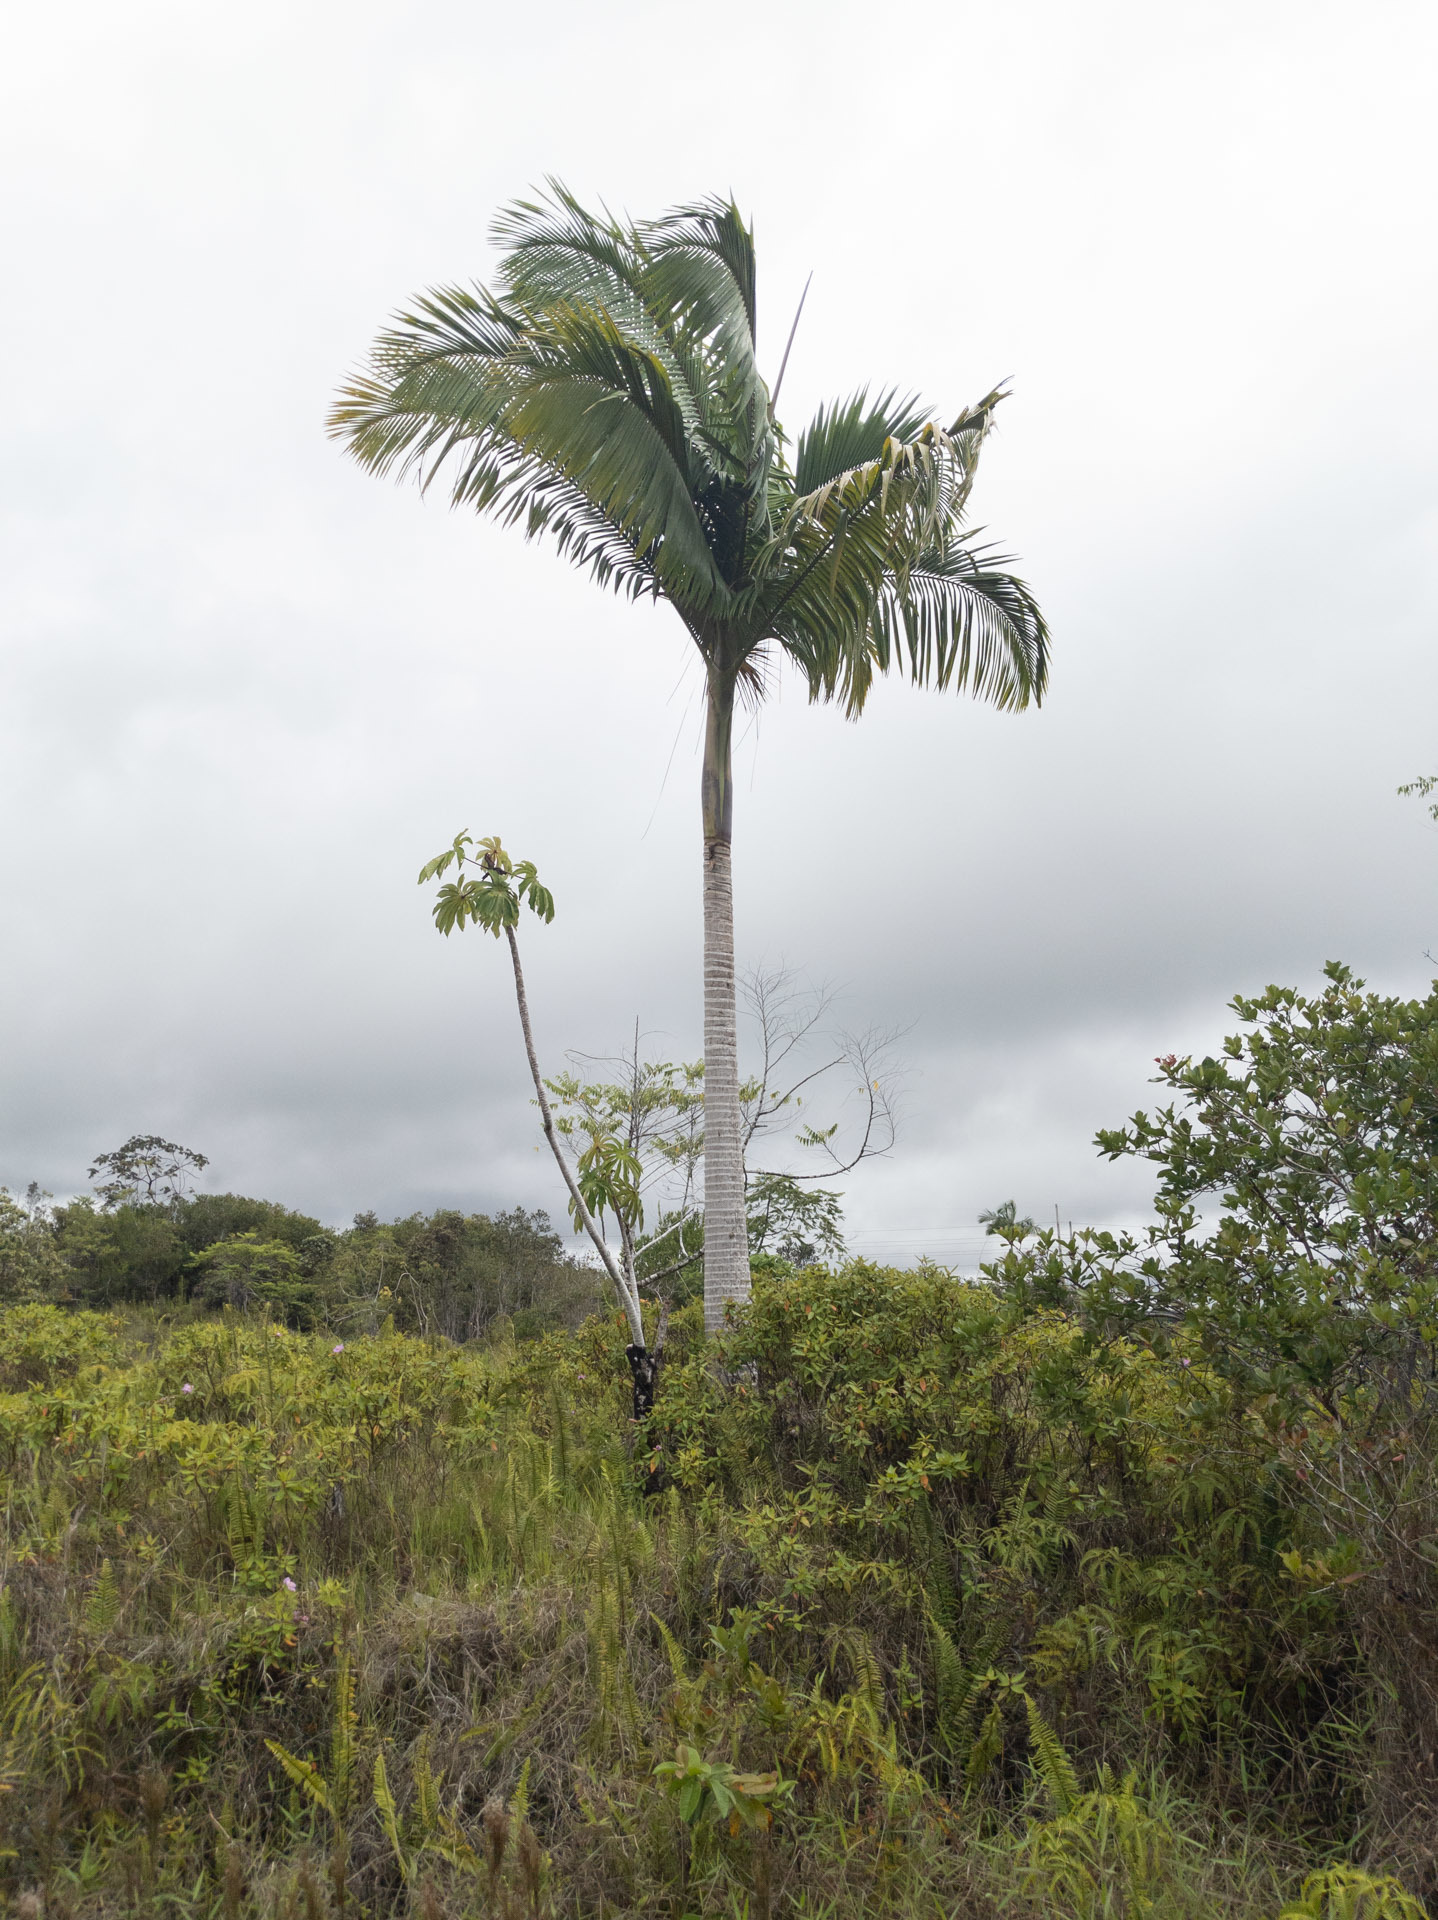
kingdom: Plantae
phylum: Tracheophyta
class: Liliopsida
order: Arecales
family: Arecaceae
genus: Archontophoenix
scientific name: Archontophoenix alexandrae
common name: Alexandra palm
